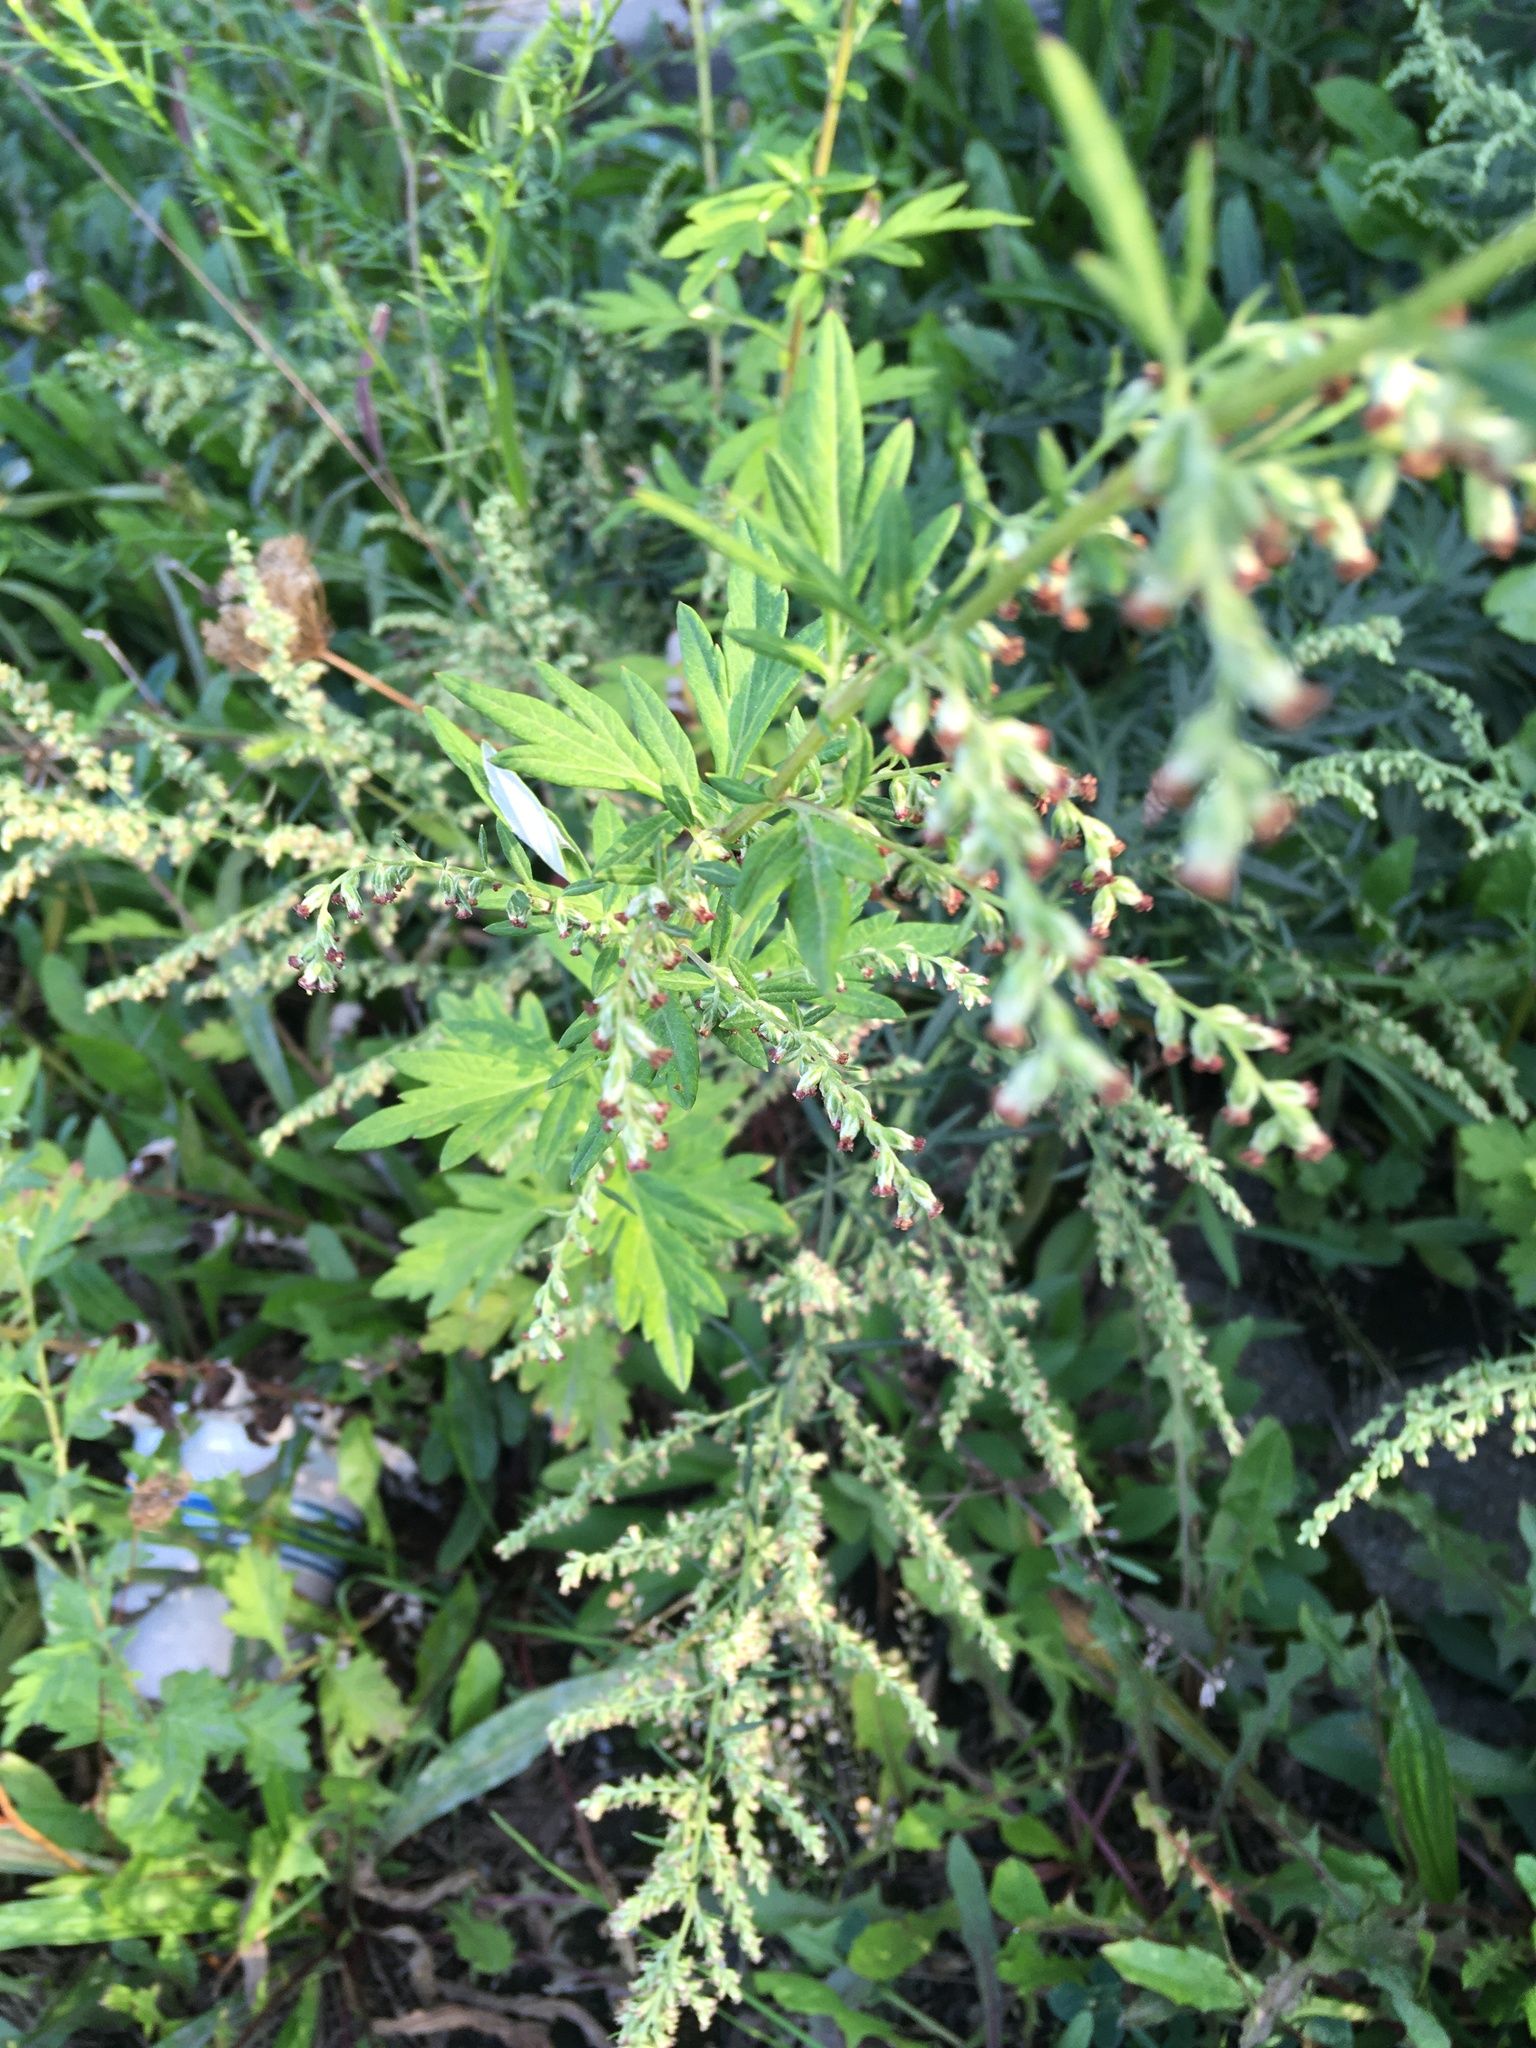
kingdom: Plantae
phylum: Tracheophyta
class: Magnoliopsida
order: Asterales
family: Asteraceae
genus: Artemisia
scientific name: Artemisia vulgaris
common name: Mugwort
